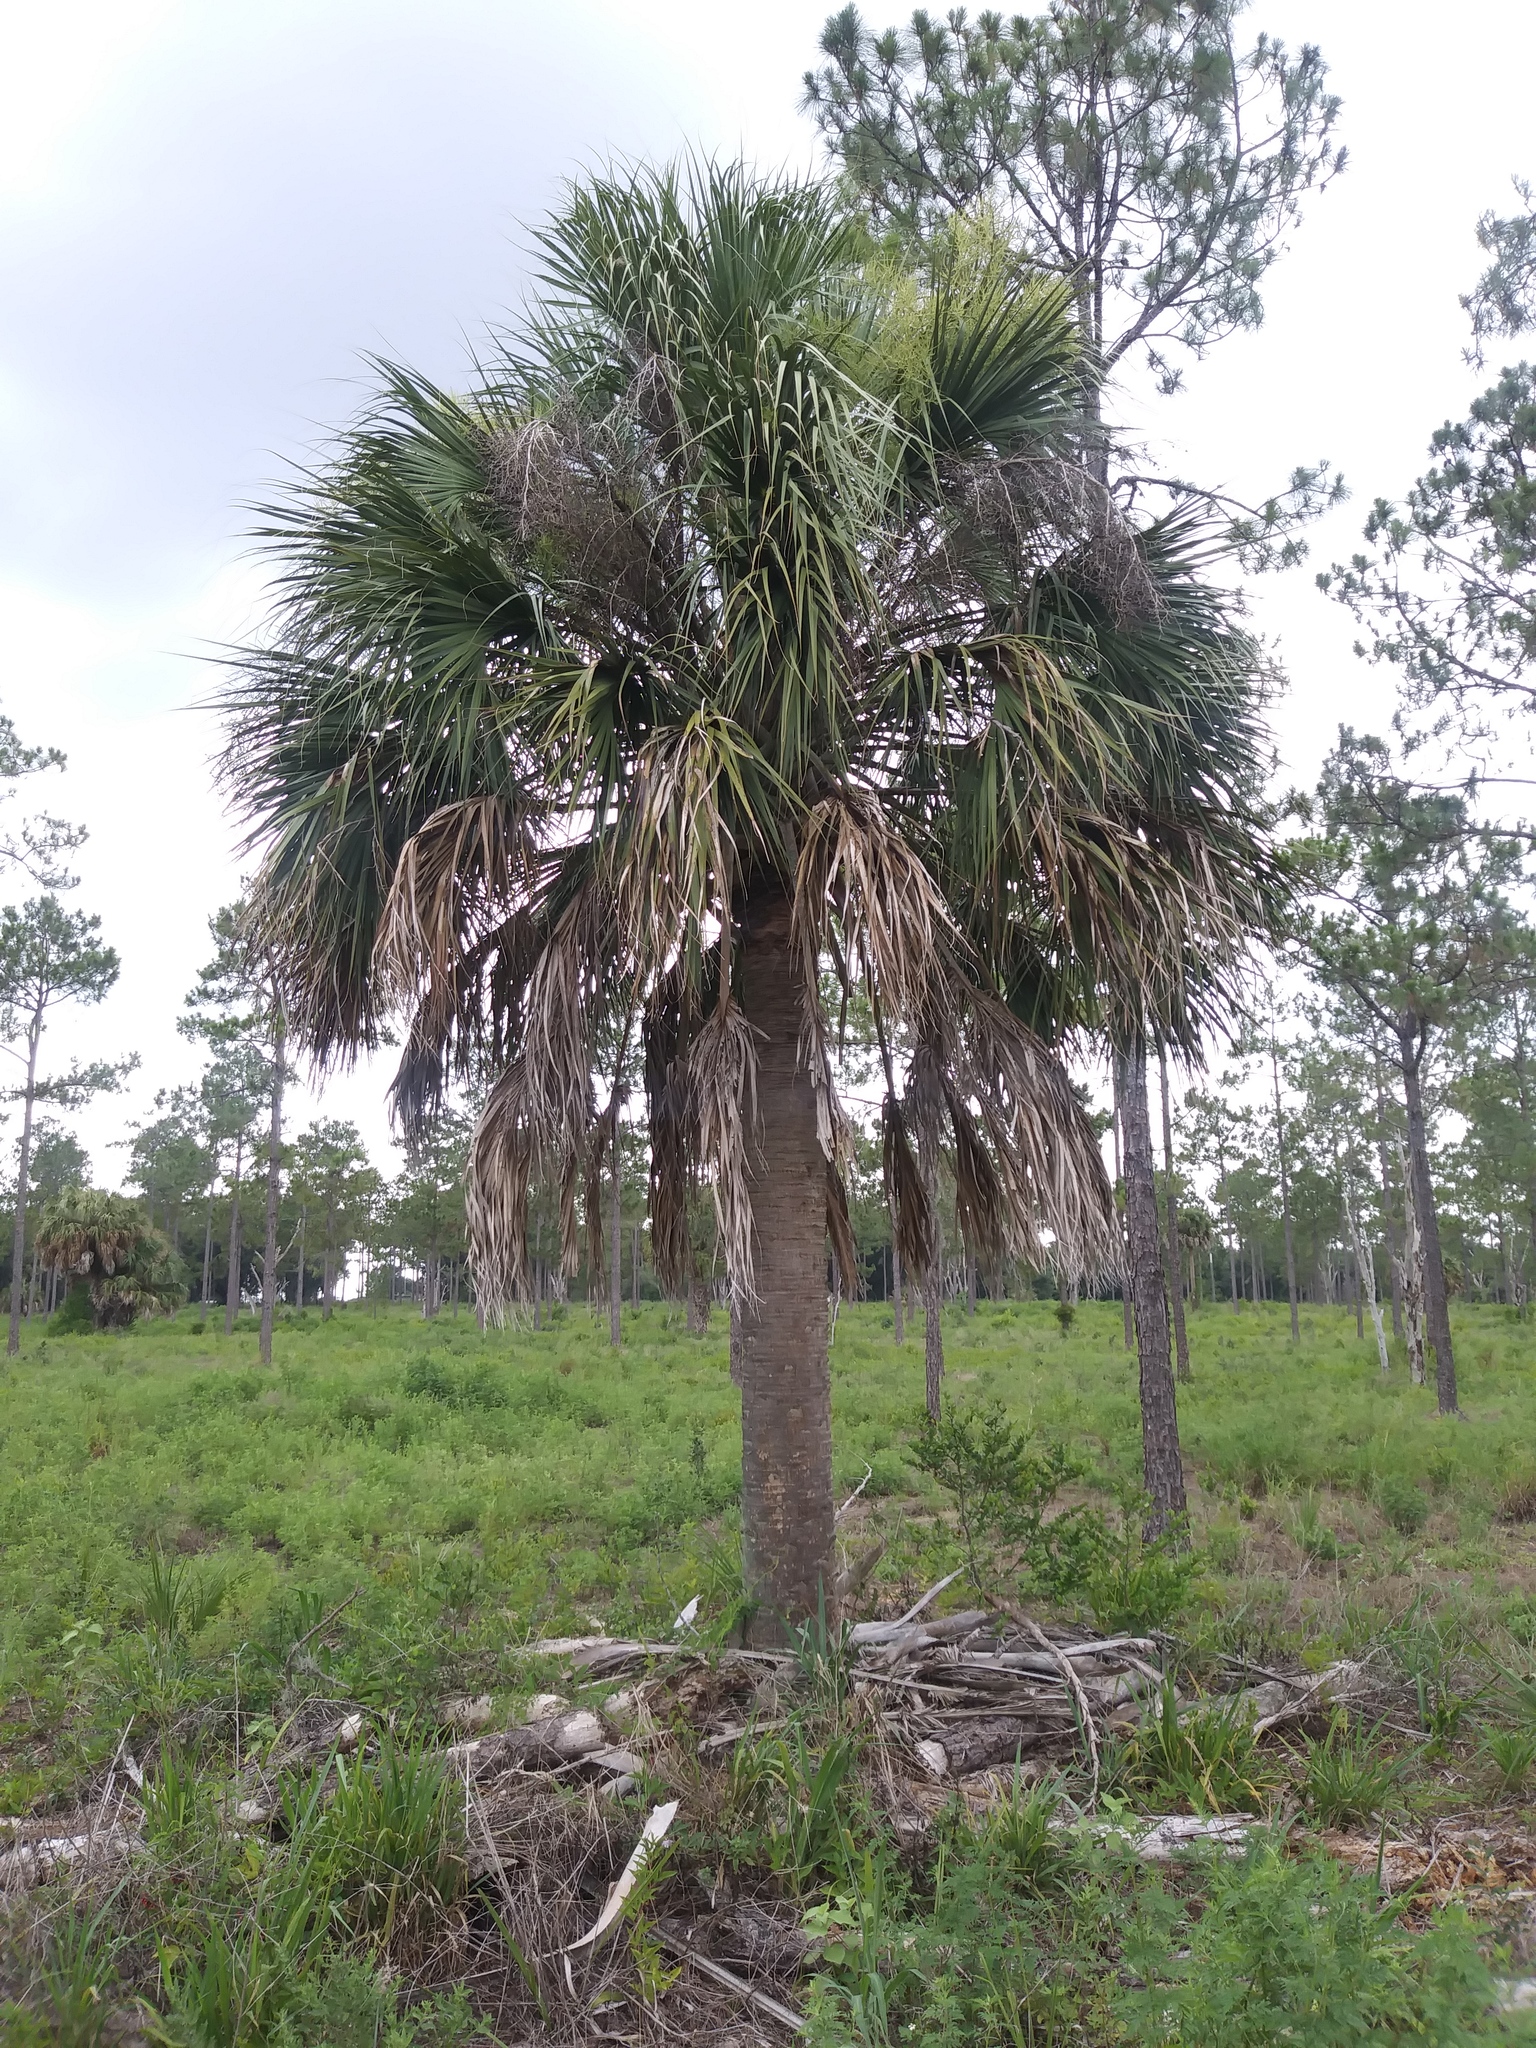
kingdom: Plantae
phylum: Tracheophyta
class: Liliopsida
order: Arecales
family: Arecaceae
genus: Sabal
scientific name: Sabal palmetto
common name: Blue palmetto
